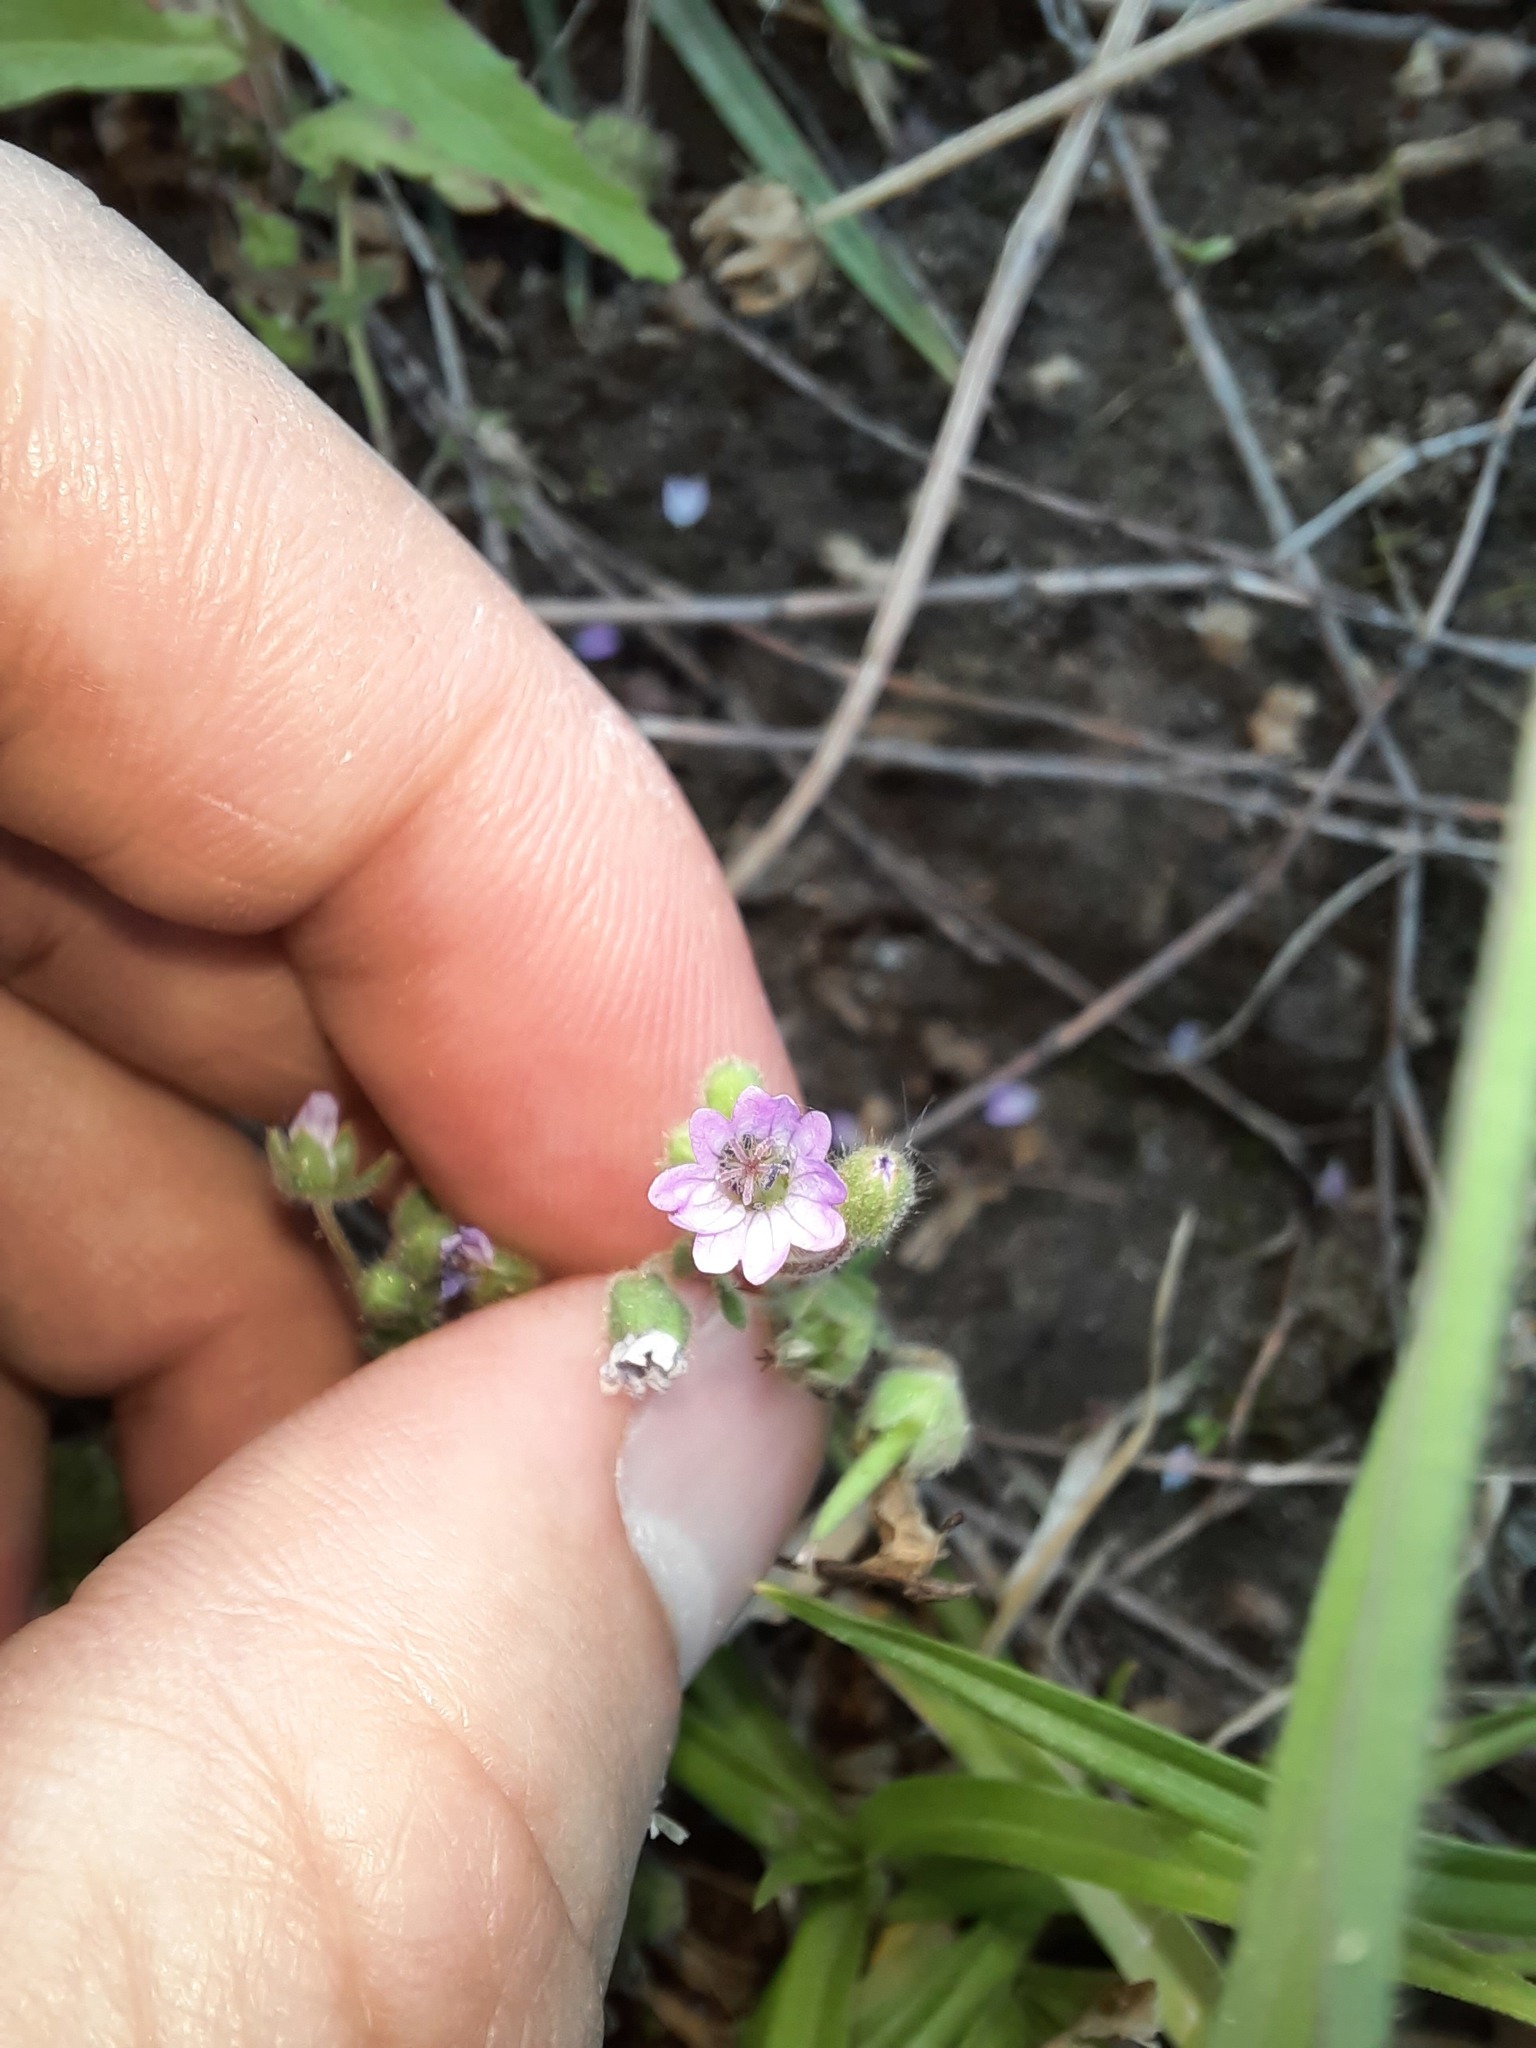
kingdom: Plantae
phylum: Tracheophyta
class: Magnoliopsida
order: Geraniales
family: Geraniaceae
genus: Geranium
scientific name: Geranium molle
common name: Dove's-foot crane's-bill
